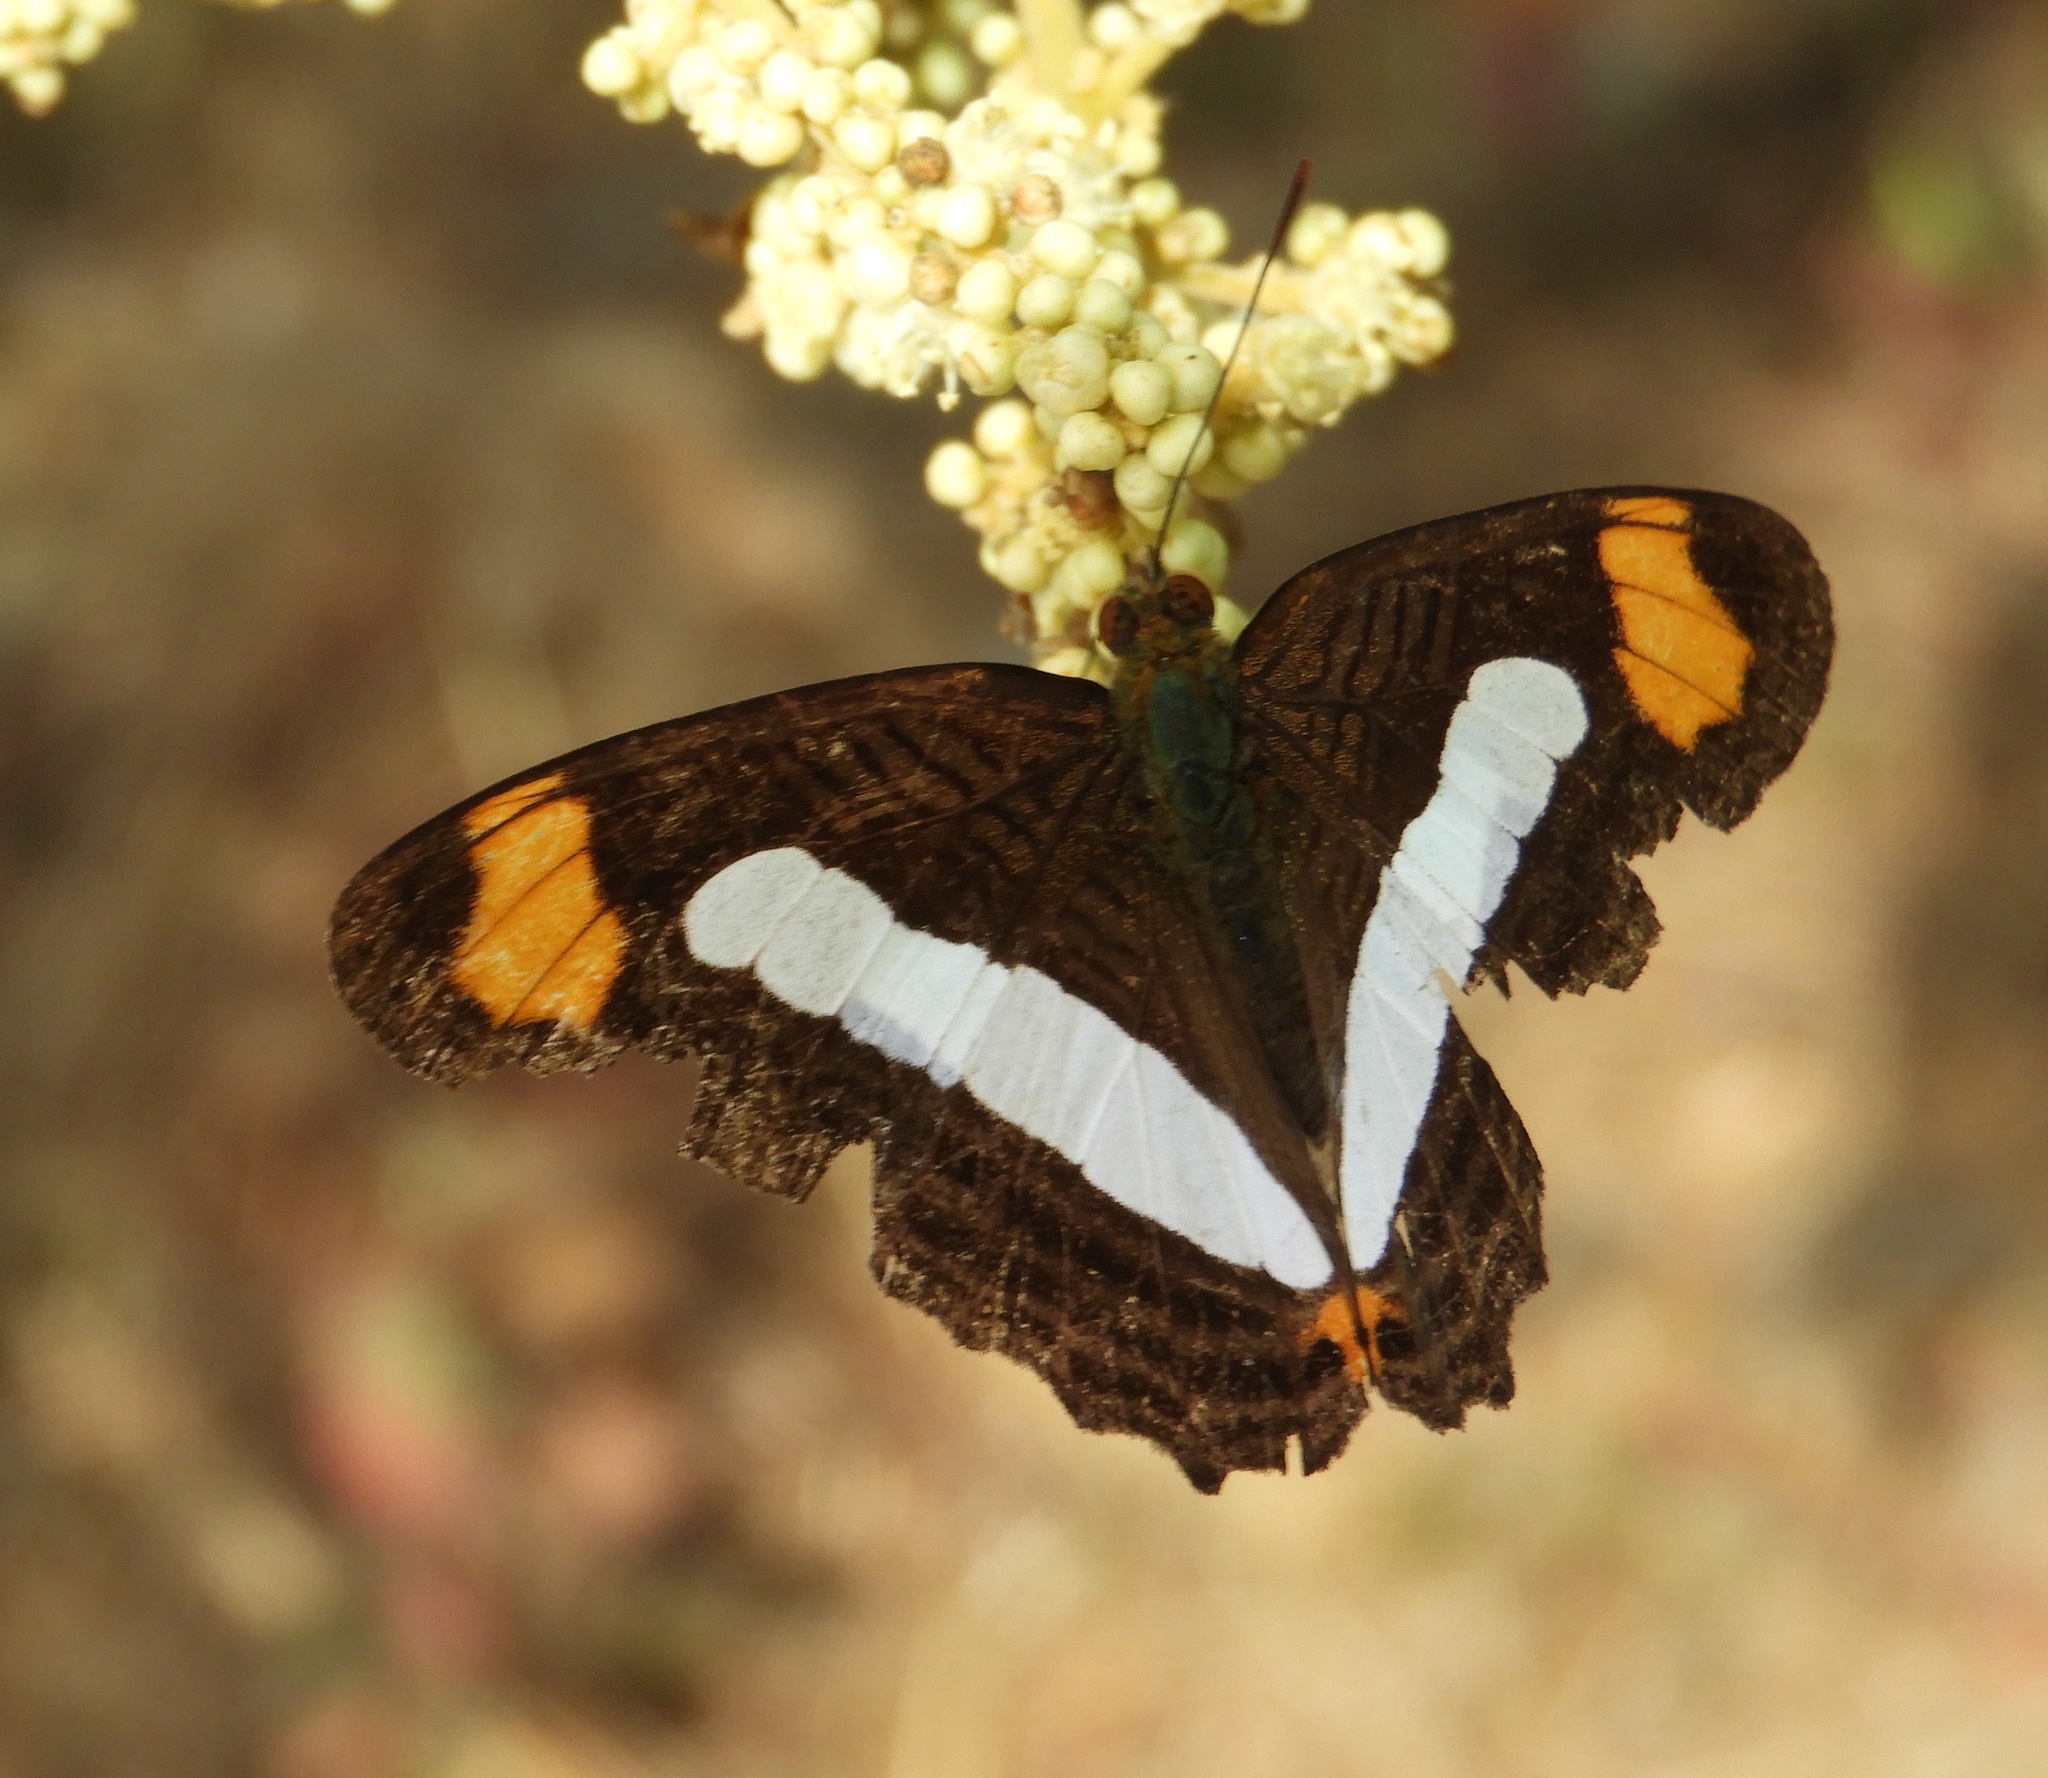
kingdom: Animalia
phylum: Arthropoda
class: Insecta
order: Lepidoptera
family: Nymphalidae
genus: Limenitis
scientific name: Limenitis iphiclus
